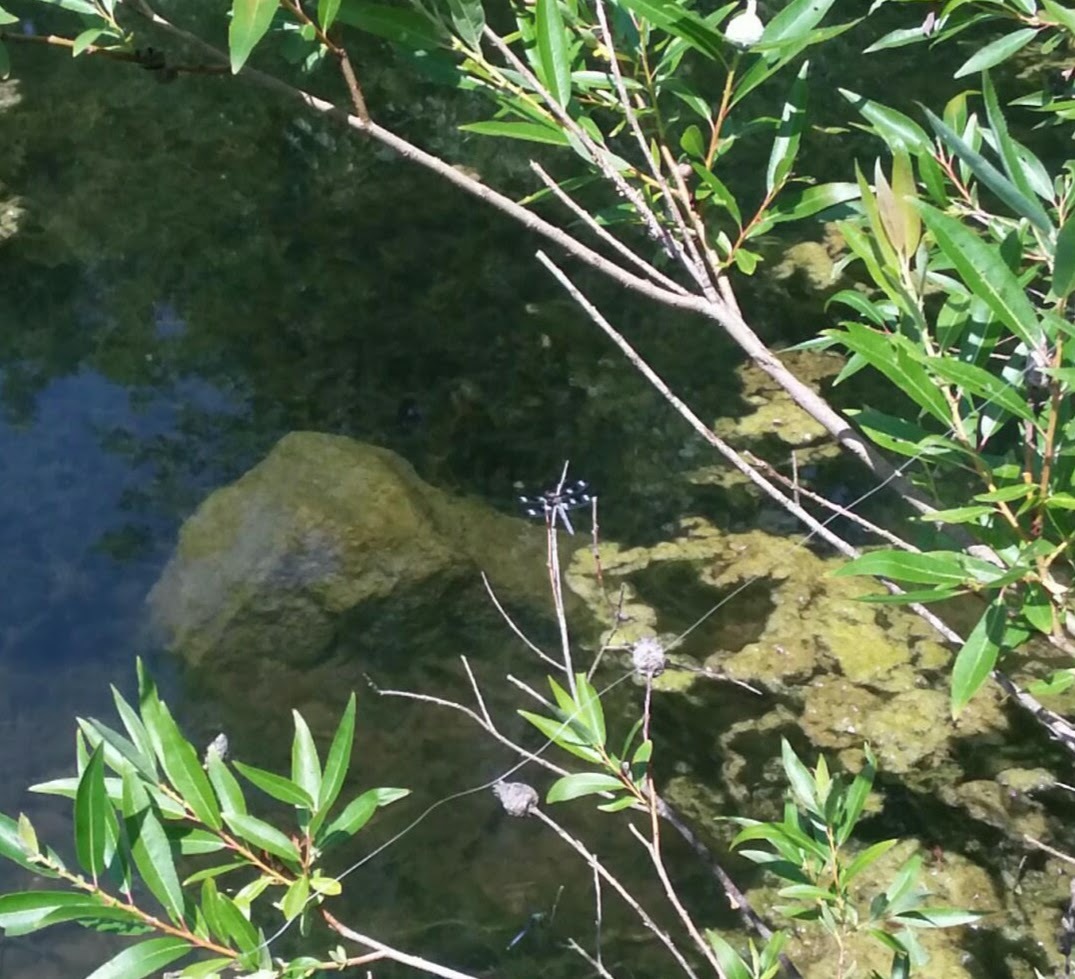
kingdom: Animalia
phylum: Arthropoda
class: Insecta
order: Odonata
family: Libellulidae
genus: Libellula
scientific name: Libellula pulchella
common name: Twelve-spotted skimmer
